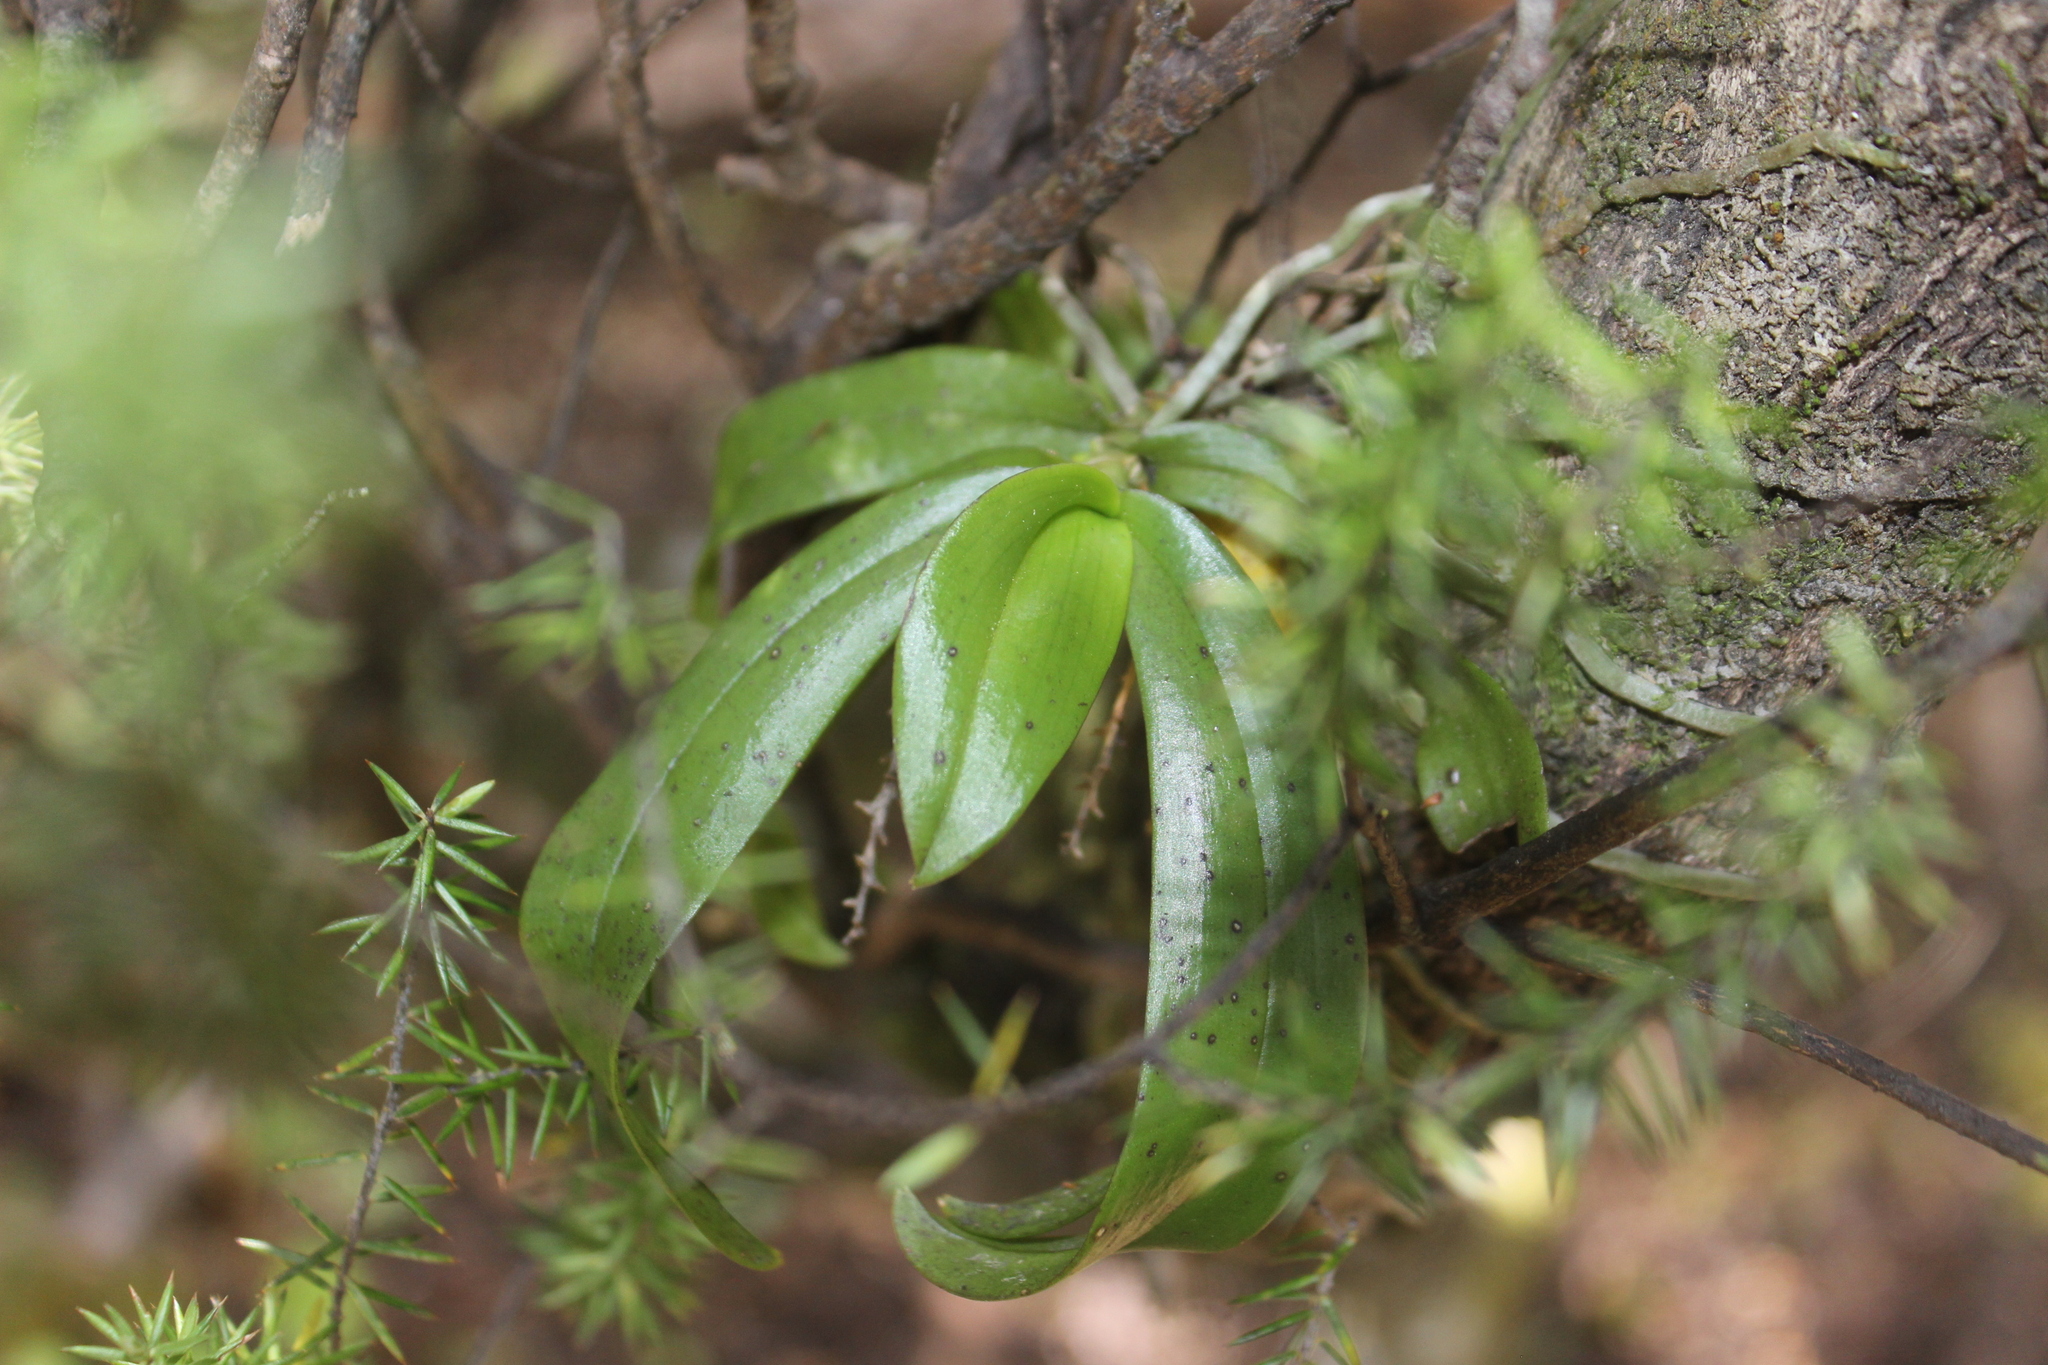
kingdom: Plantae
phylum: Tracheophyta
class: Liliopsida
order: Asparagales
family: Orchidaceae
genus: Drymoanthus
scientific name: Drymoanthus adversus
